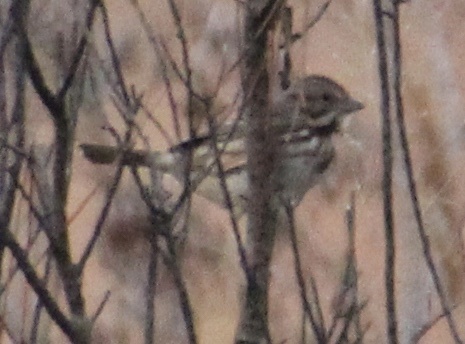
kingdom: Animalia
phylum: Chordata
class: Aves
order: Passeriformes
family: Passerellidae
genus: Melospiza
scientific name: Melospiza melodia
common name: Song sparrow
